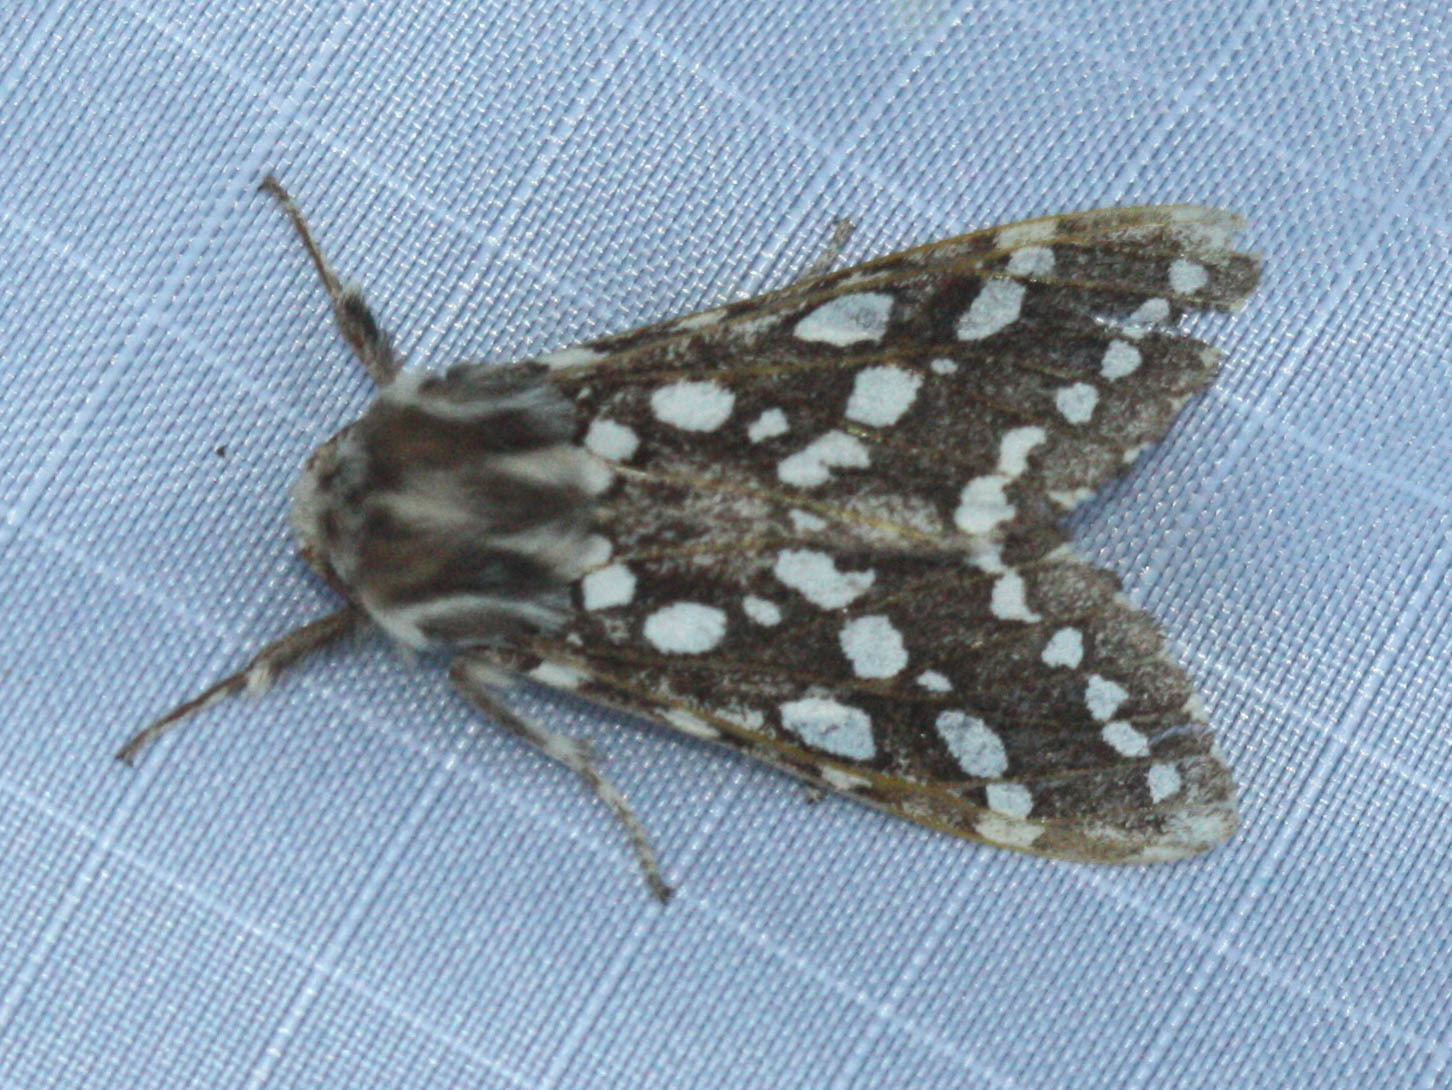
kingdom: Animalia
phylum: Arthropoda
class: Insecta
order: Lepidoptera
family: Erebidae
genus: Lophocampa
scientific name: Lophocampa argentata
